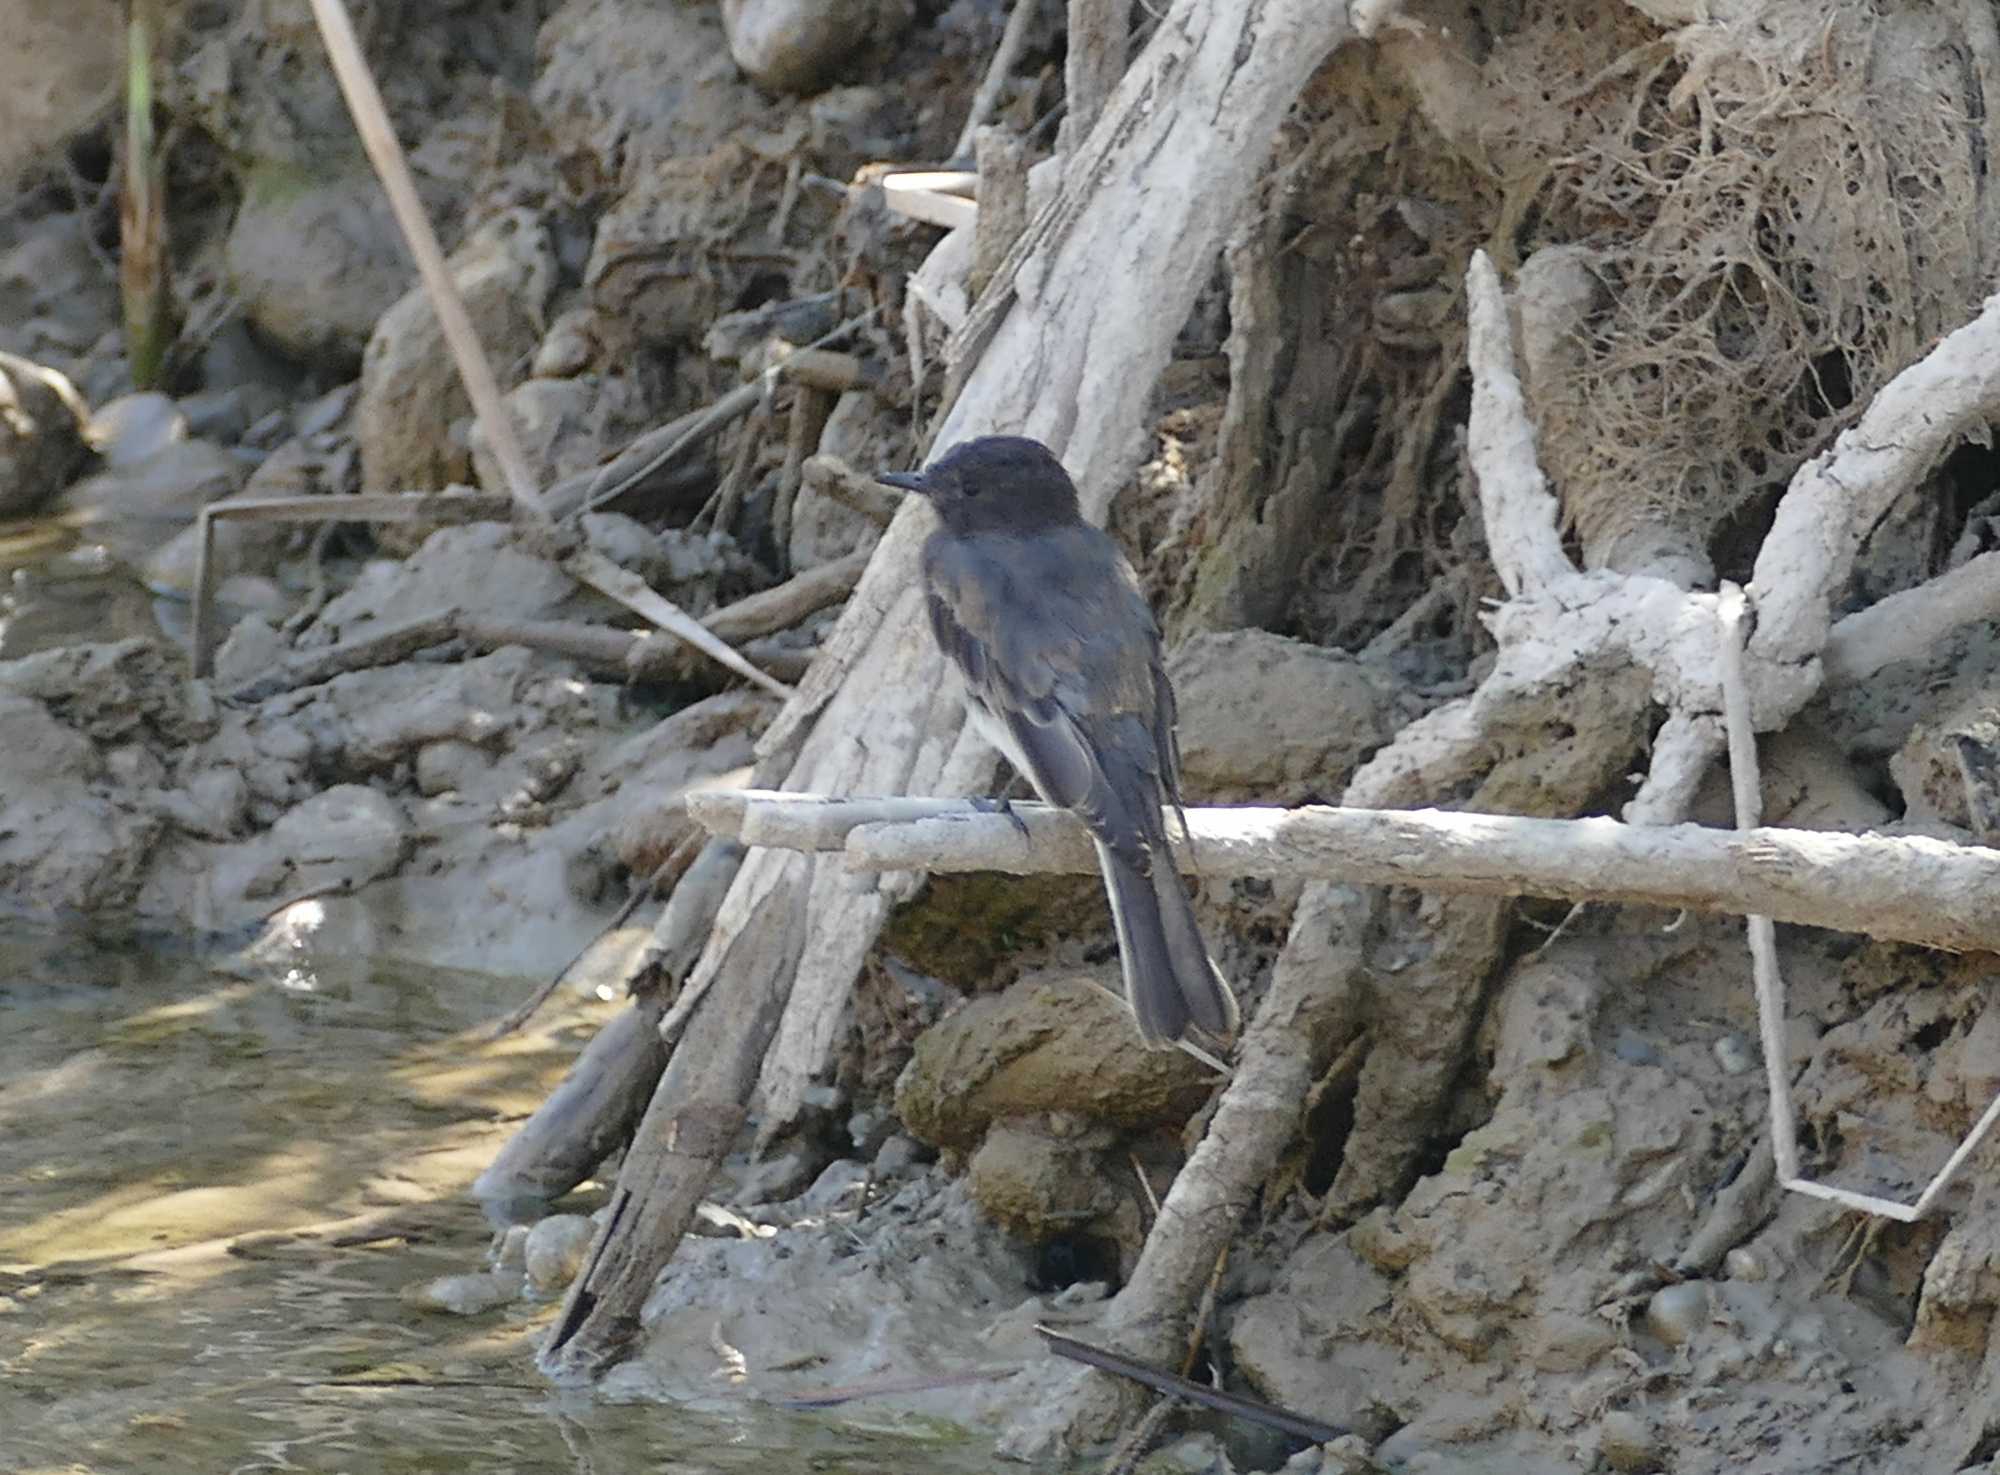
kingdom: Animalia
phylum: Chordata
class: Aves
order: Passeriformes
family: Tyrannidae
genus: Sayornis
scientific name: Sayornis nigricans
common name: Black phoebe
